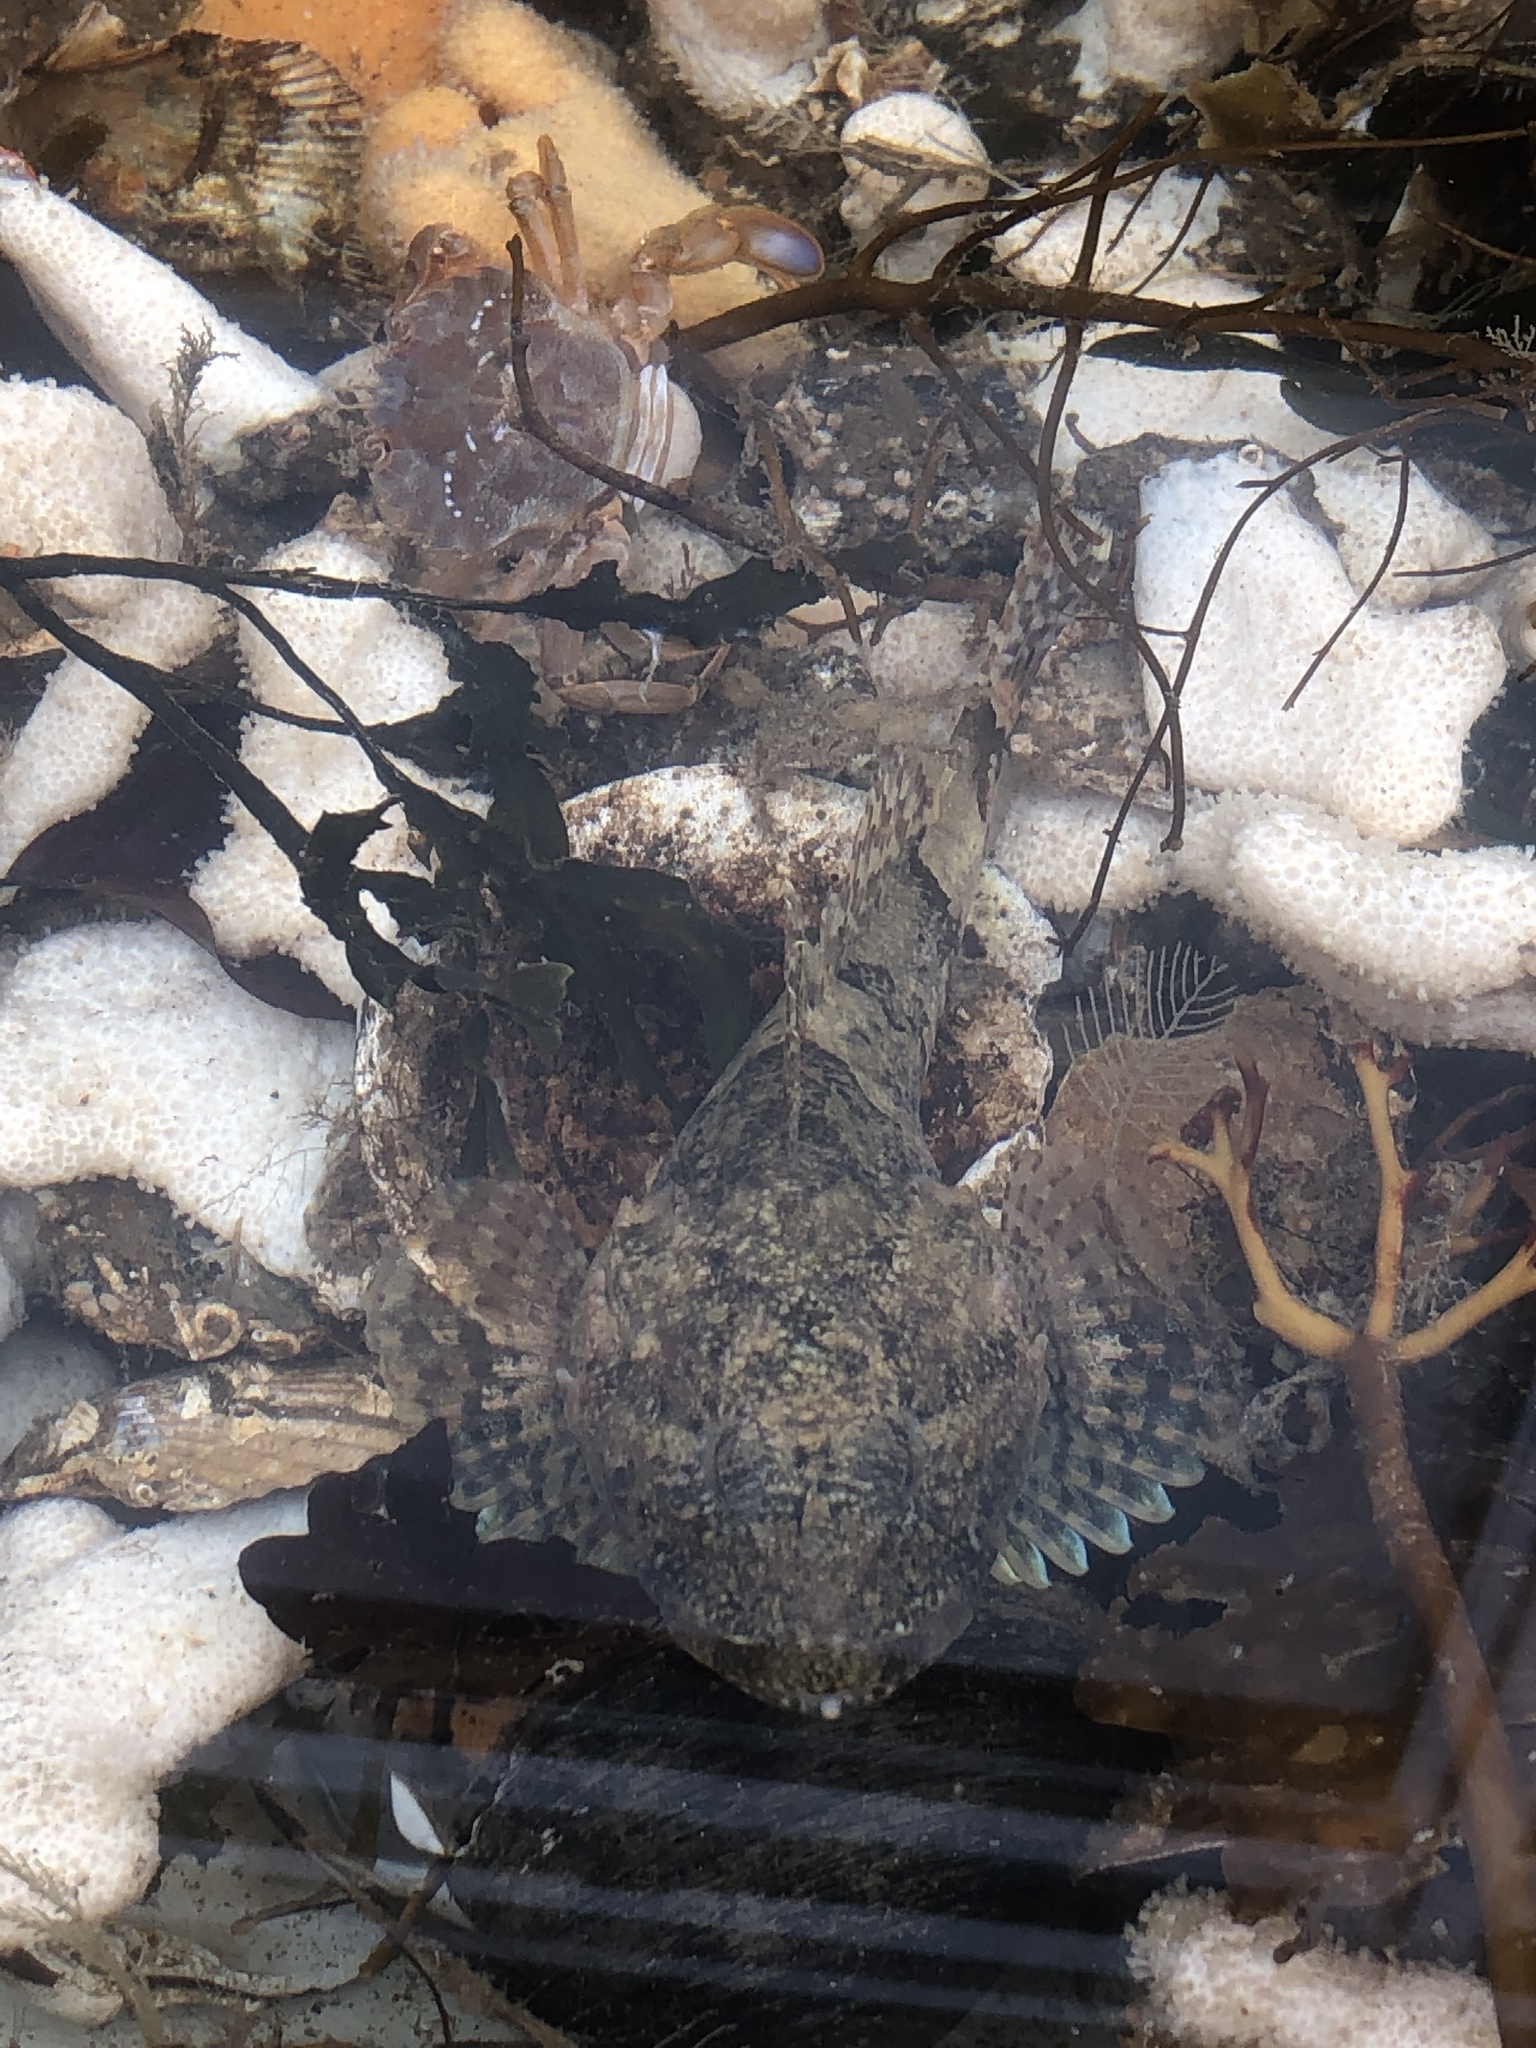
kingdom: Animalia
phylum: Chordata
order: Scorpaeniformes
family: Cottidae
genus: Myoxocephalus
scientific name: Myoxocephalus scorpius
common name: Shorthorn sculpin
